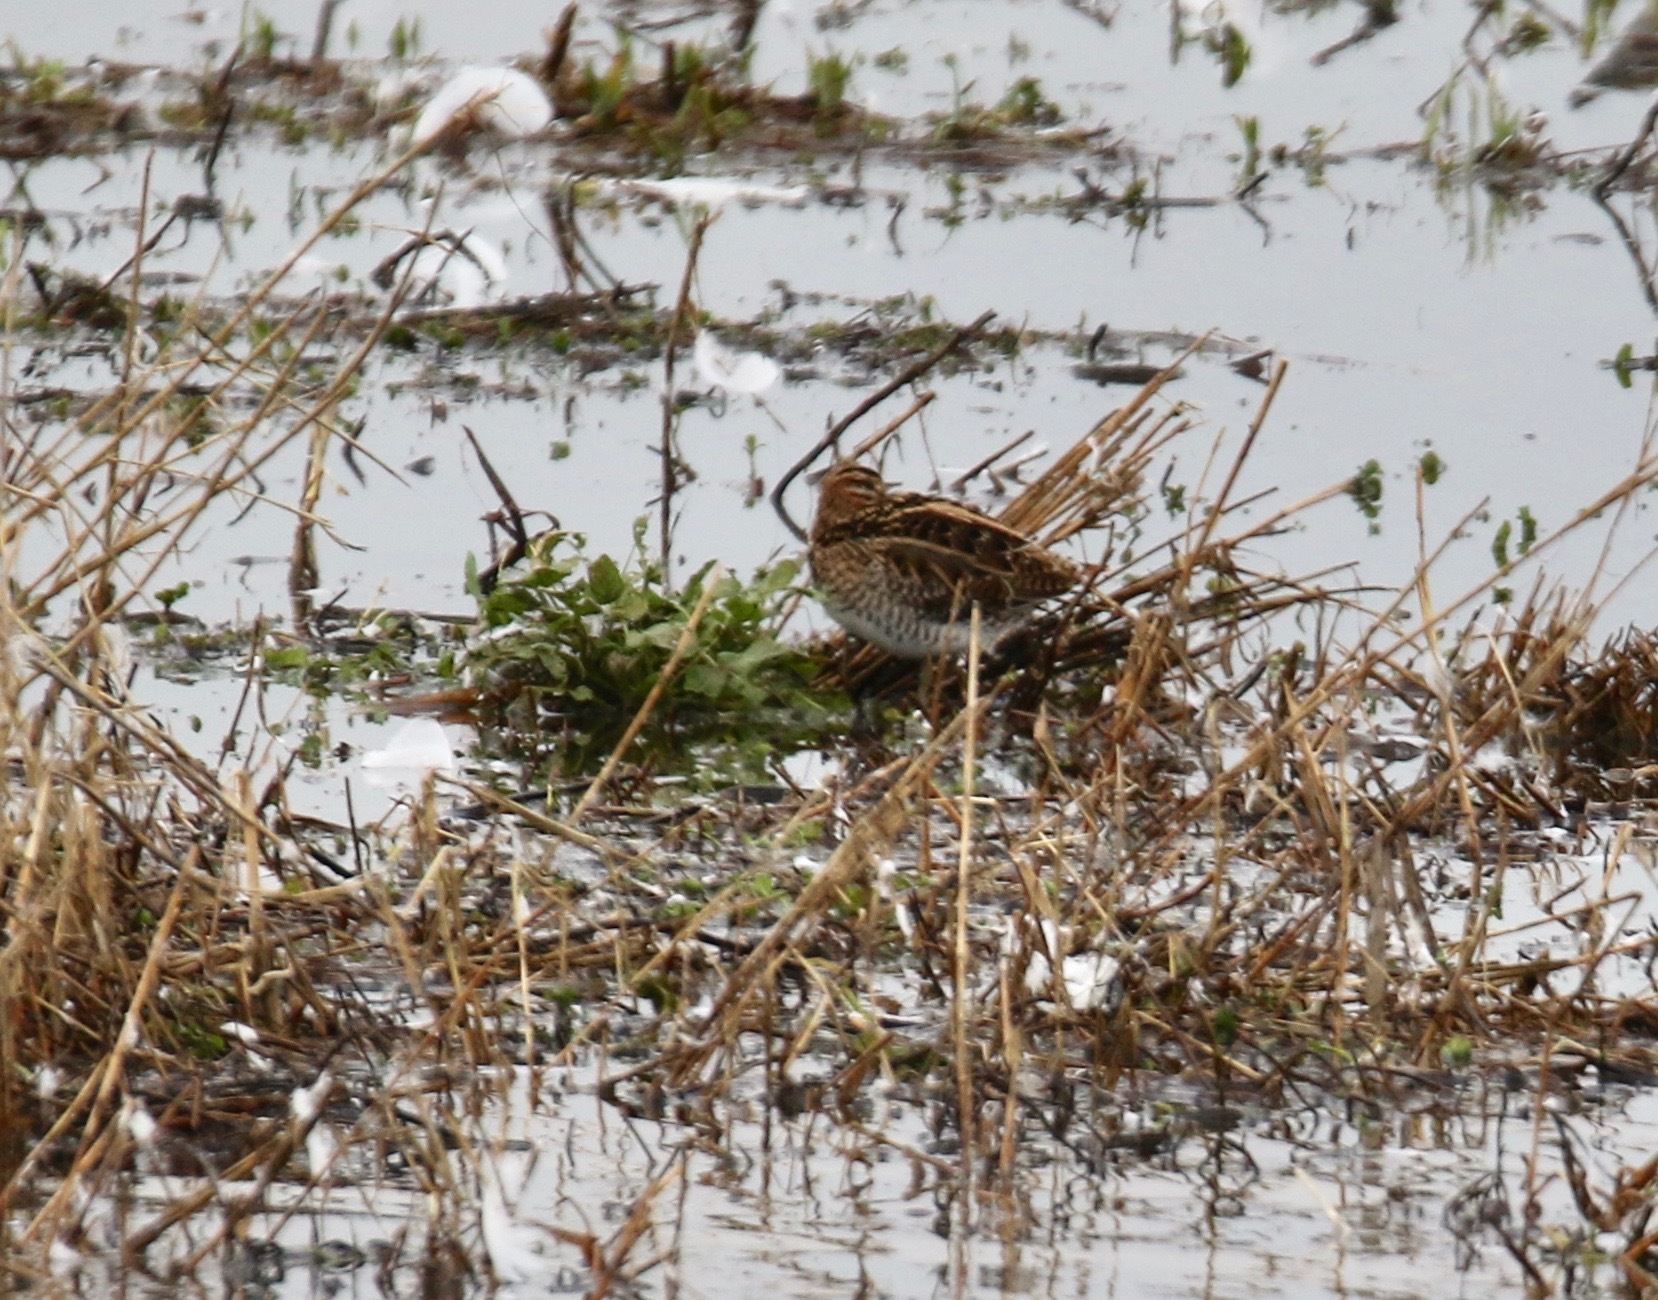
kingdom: Animalia
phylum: Chordata
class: Aves
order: Charadriiformes
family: Scolopacidae
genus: Gallinago
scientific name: Gallinago gallinago
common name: Common snipe
